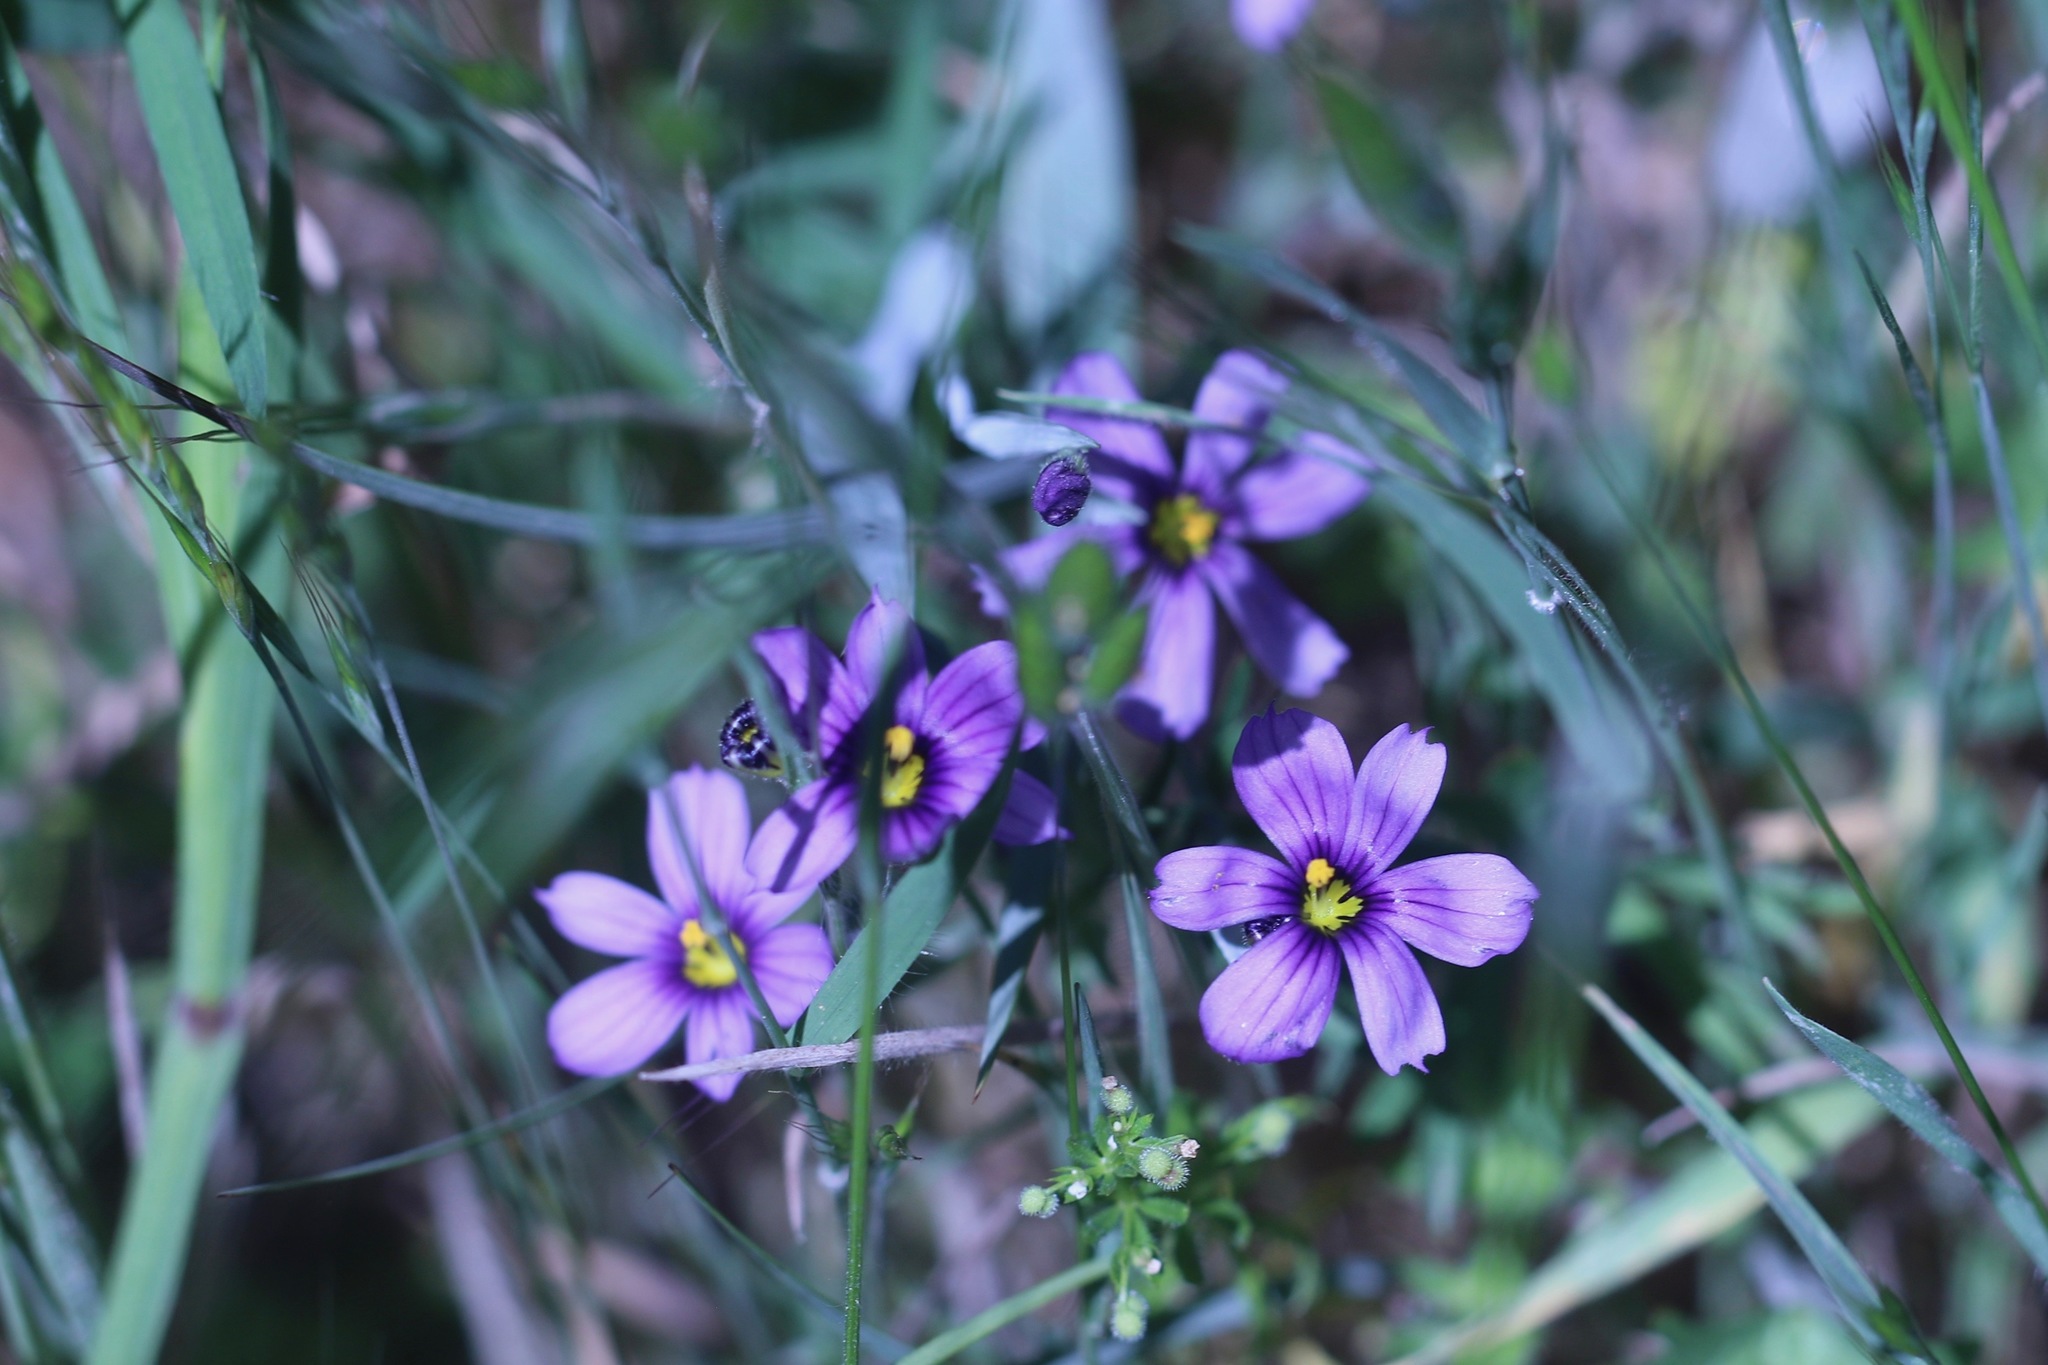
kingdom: Plantae
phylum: Tracheophyta
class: Liliopsida
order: Asparagales
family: Iridaceae
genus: Sisyrinchium
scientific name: Sisyrinchium bellum
